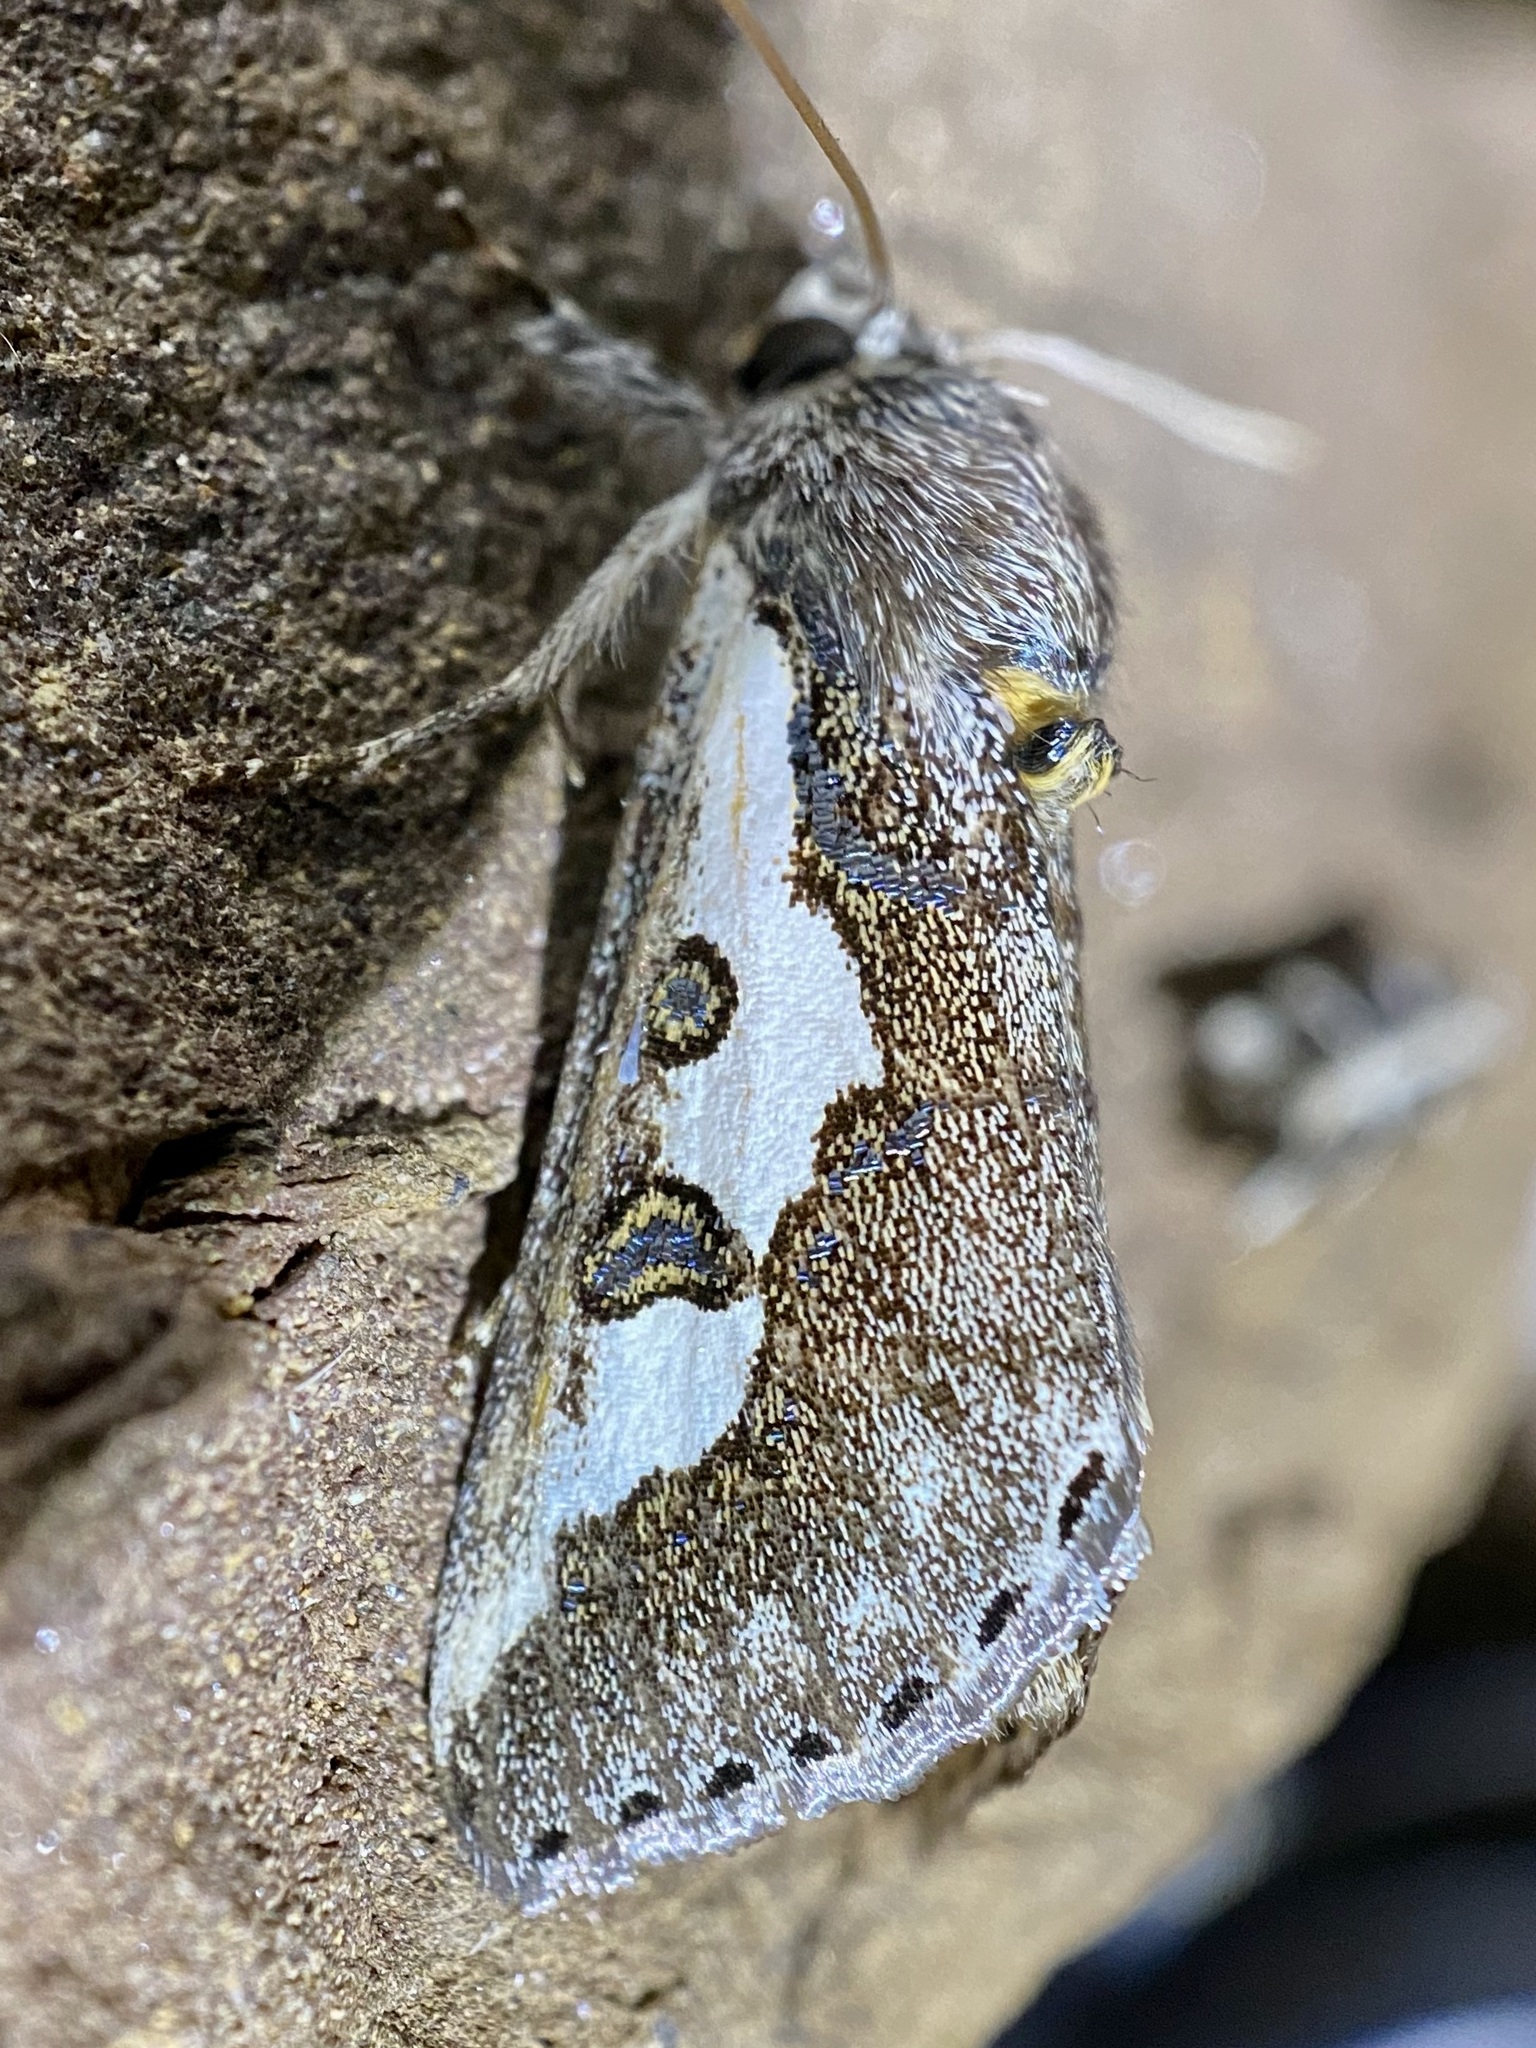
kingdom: Animalia
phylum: Arthropoda
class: Insecta
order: Lepidoptera
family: Noctuidae
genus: Euscirrhopterus
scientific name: Euscirrhopterus gloveri
